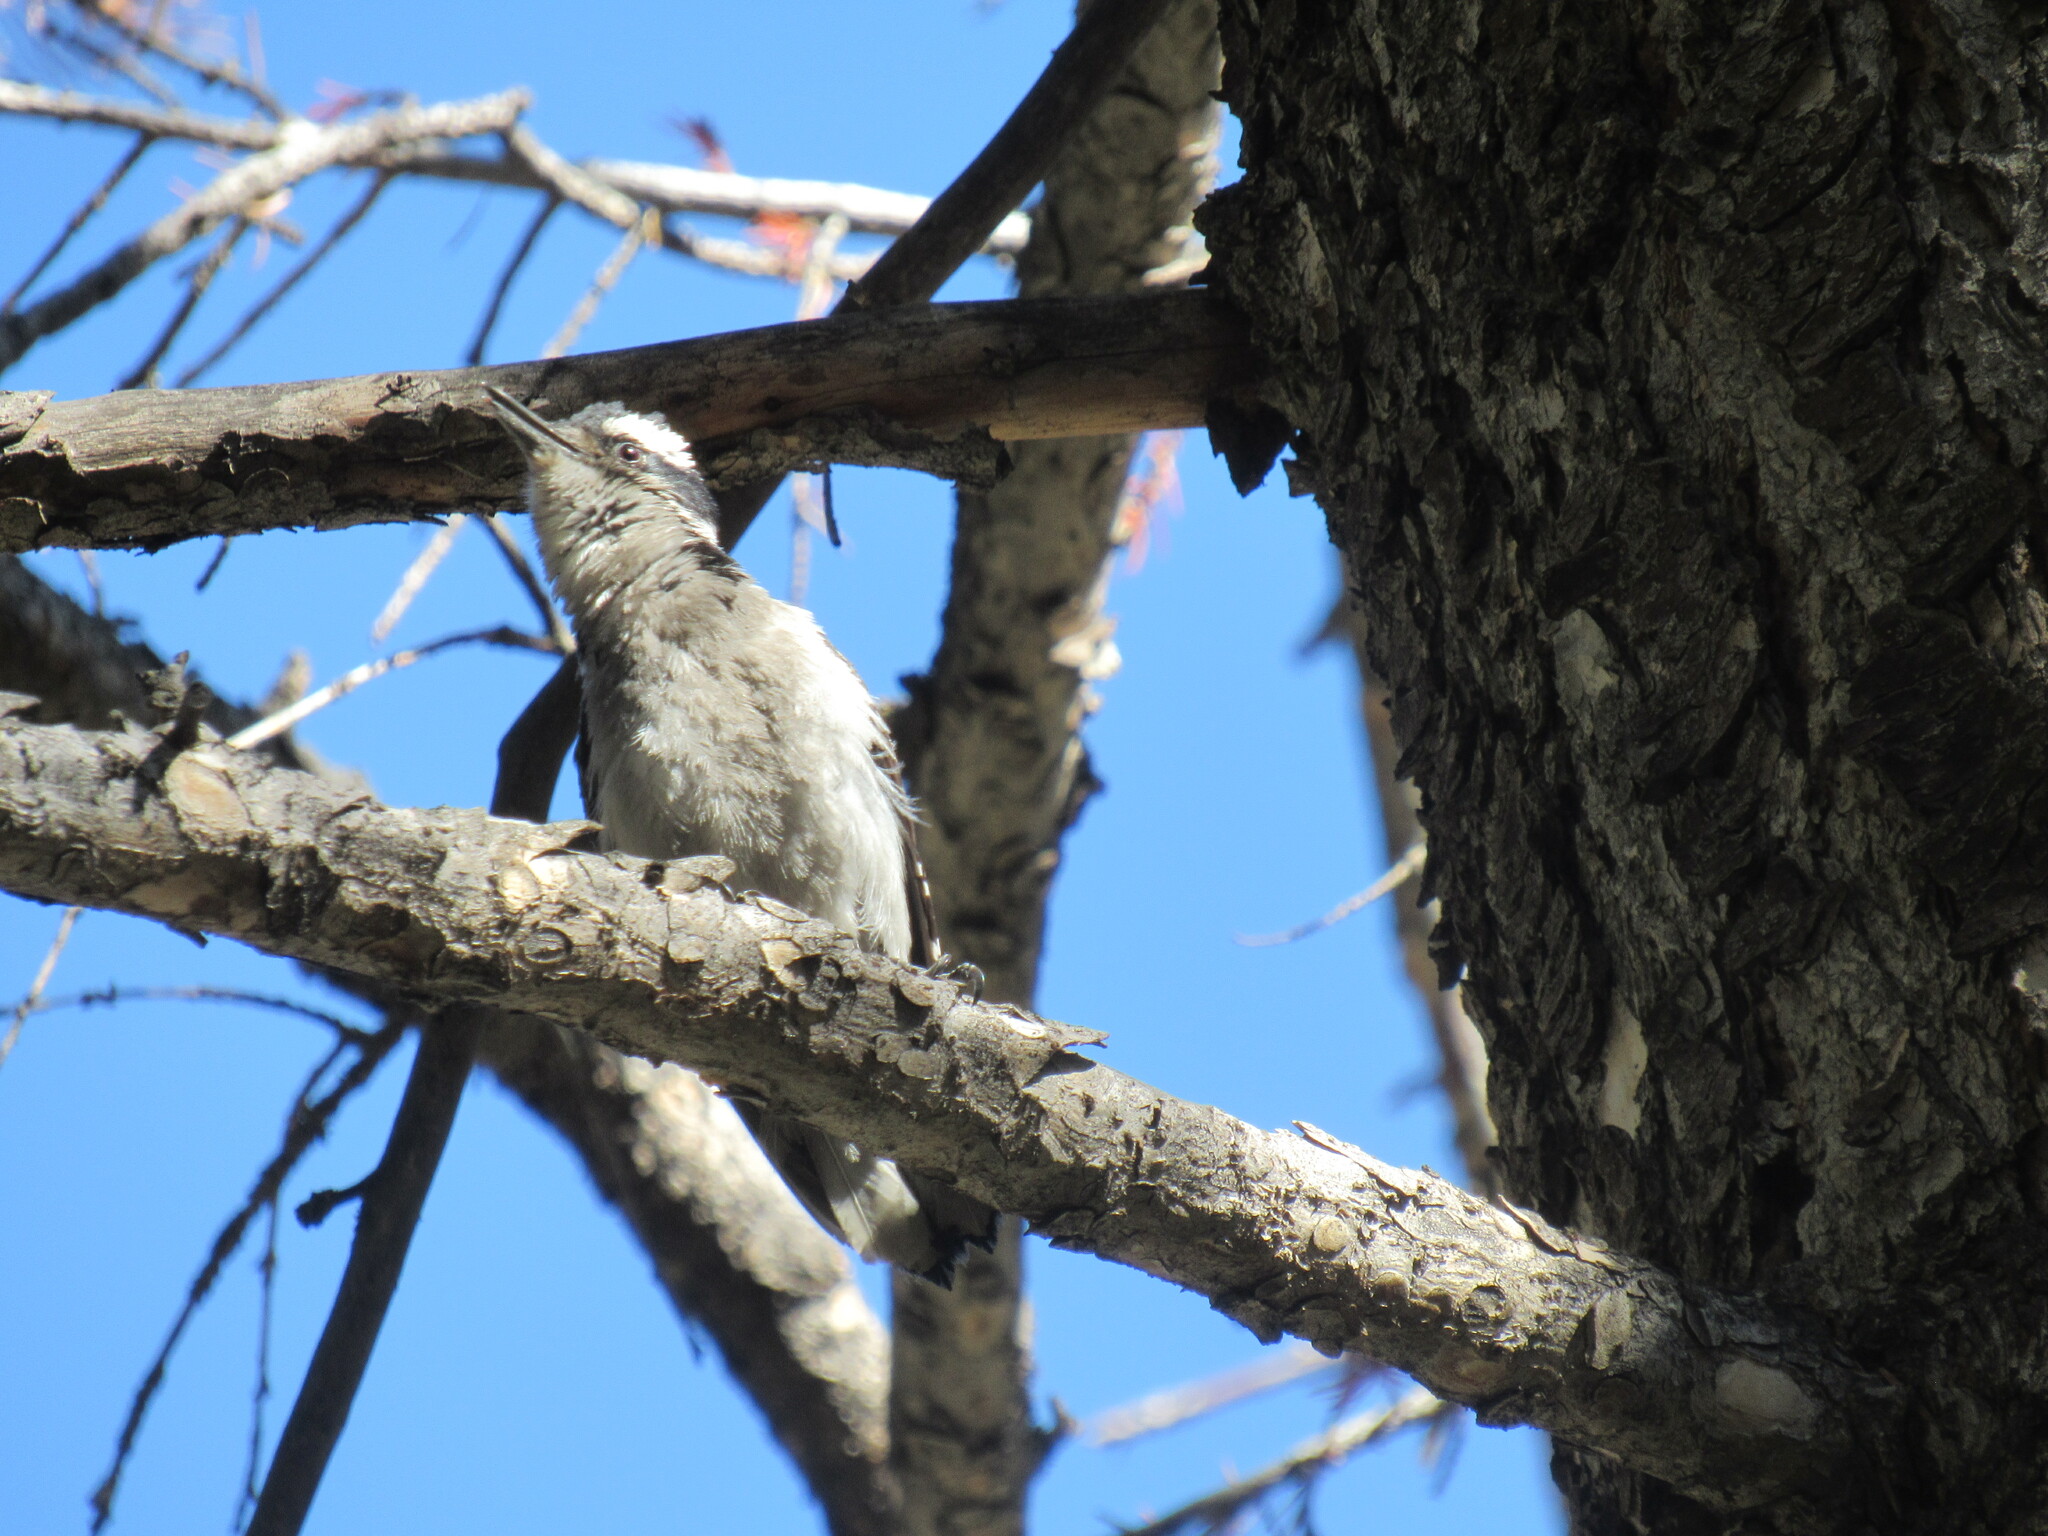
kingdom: Animalia
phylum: Chordata
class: Aves
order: Piciformes
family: Picidae
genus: Dryobates
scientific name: Dryobates pubescens
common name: Downy woodpecker
